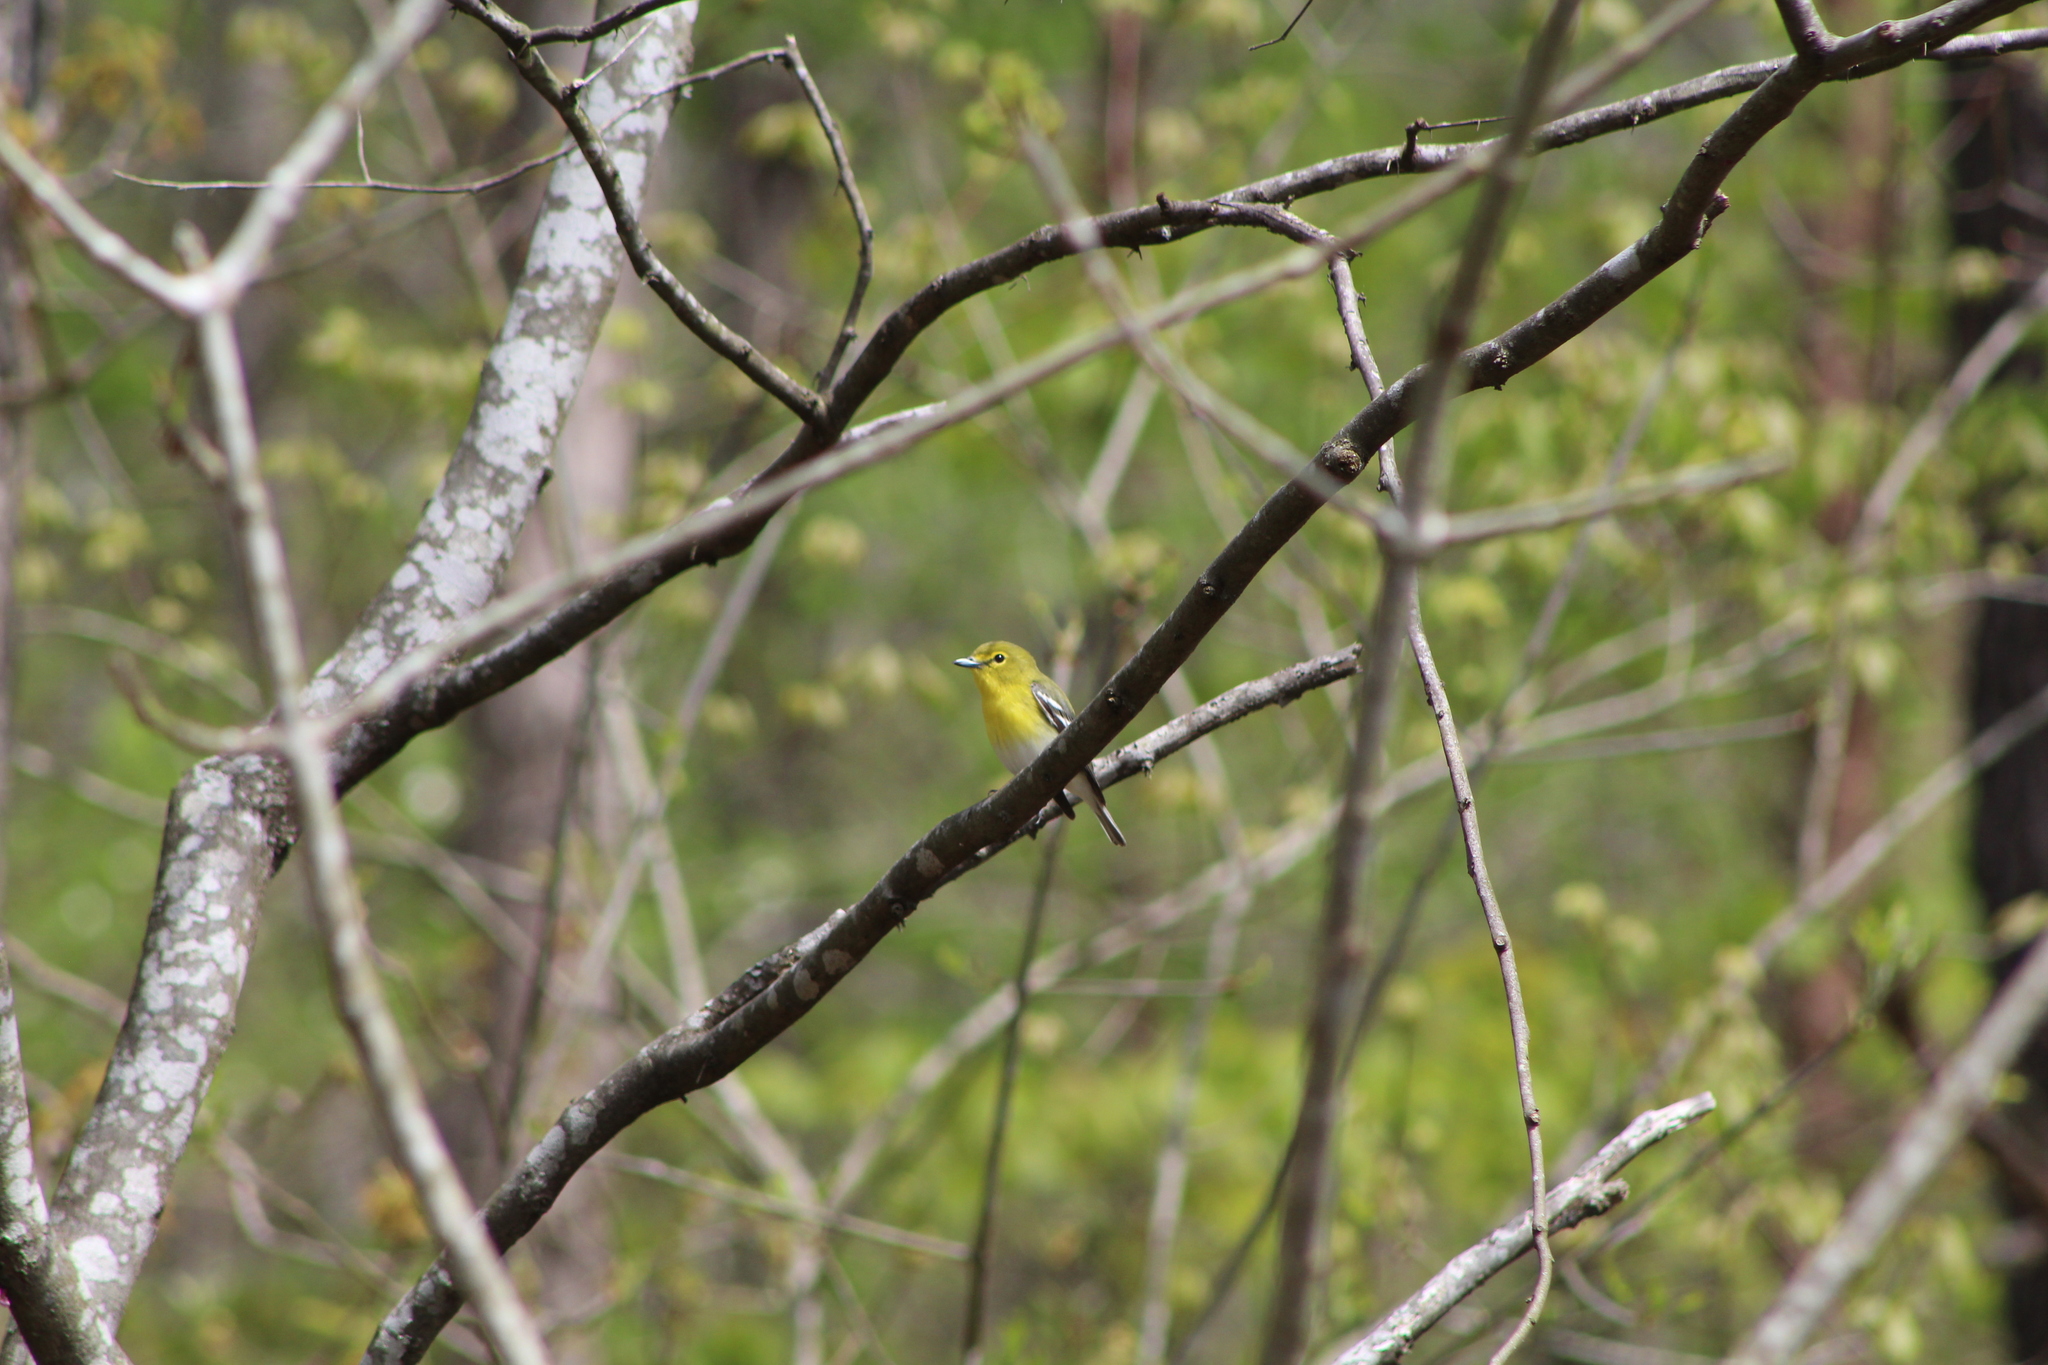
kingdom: Animalia
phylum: Chordata
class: Aves
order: Passeriformes
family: Vireonidae
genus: Vireo
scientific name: Vireo flavifrons
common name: Yellow-throated vireo
